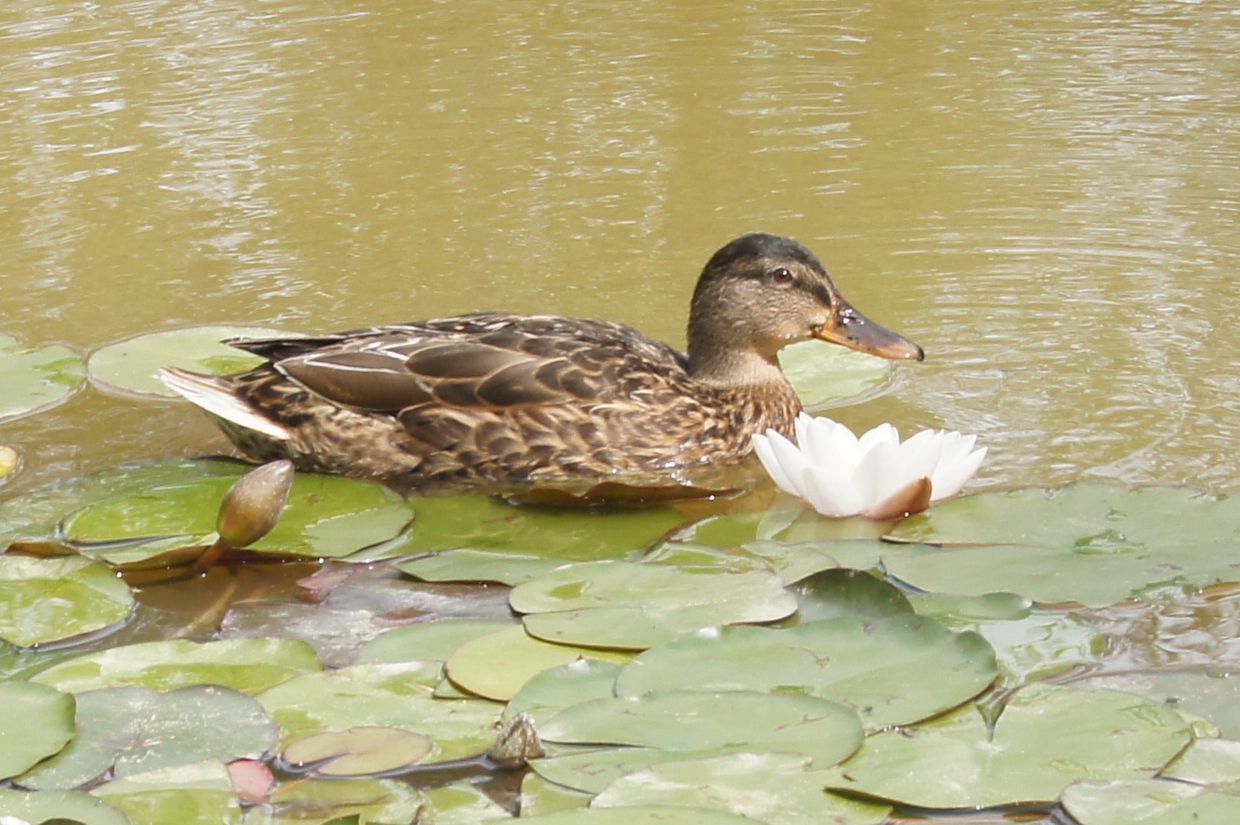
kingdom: Animalia
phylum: Chordata
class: Aves
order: Anseriformes
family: Anatidae
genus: Anas
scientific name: Anas platyrhynchos
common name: Mallard
